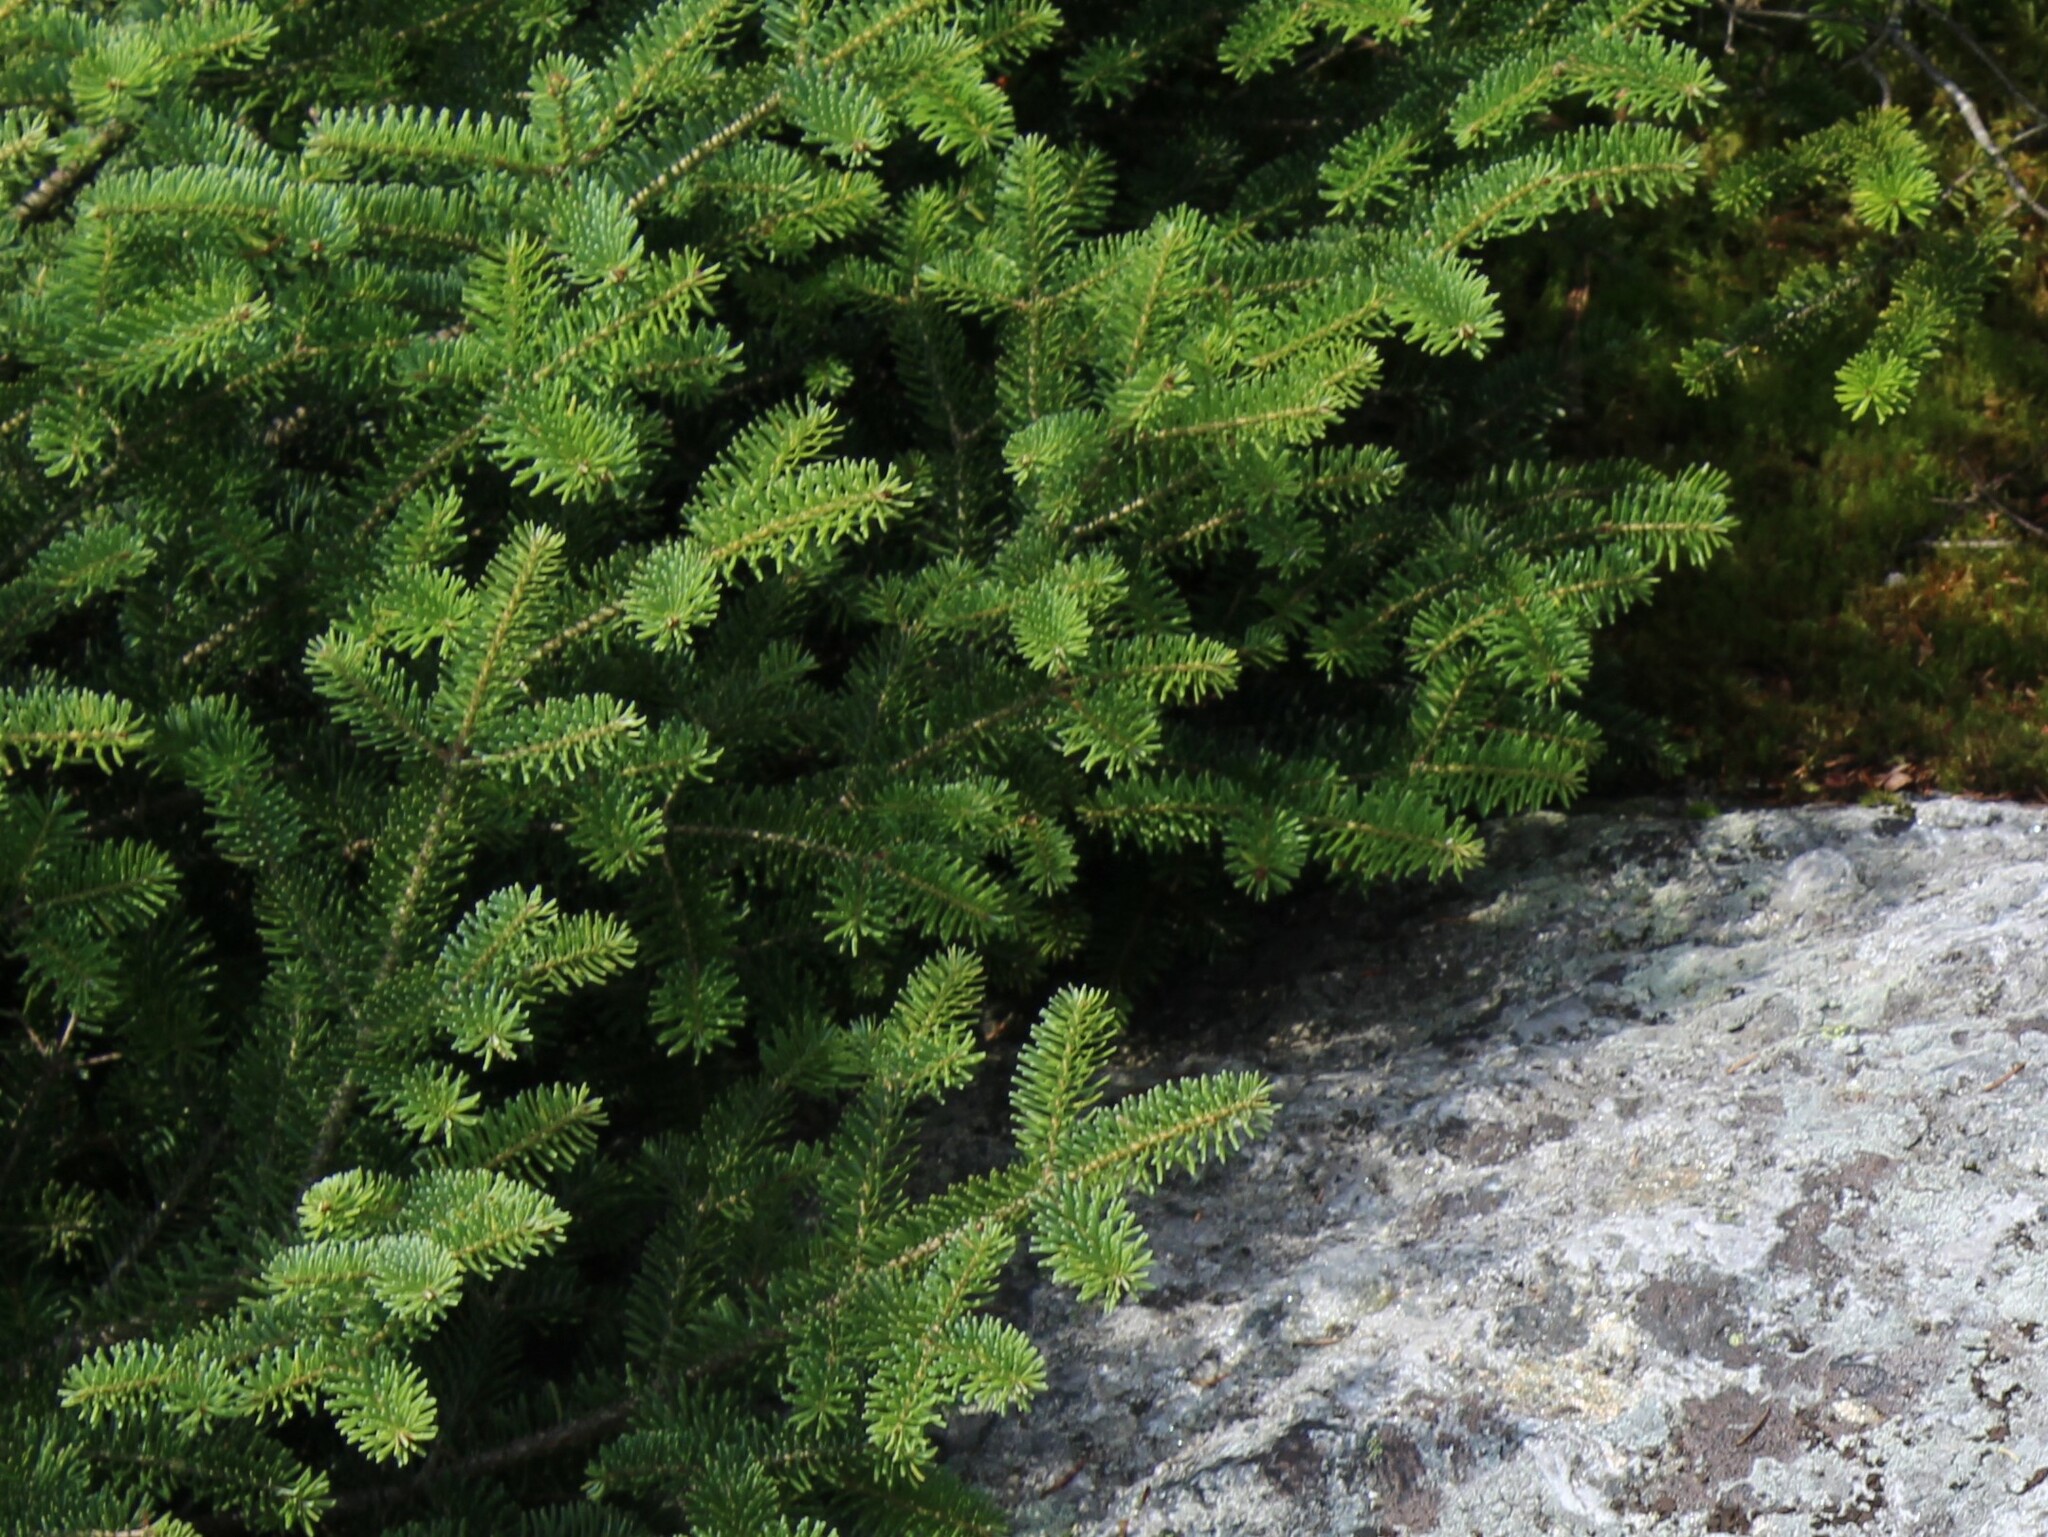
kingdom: Plantae
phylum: Tracheophyta
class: Pinopsida
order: Pinales
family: Pinaceae
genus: Abies
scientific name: Abies balsamea
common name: Balsam fir
